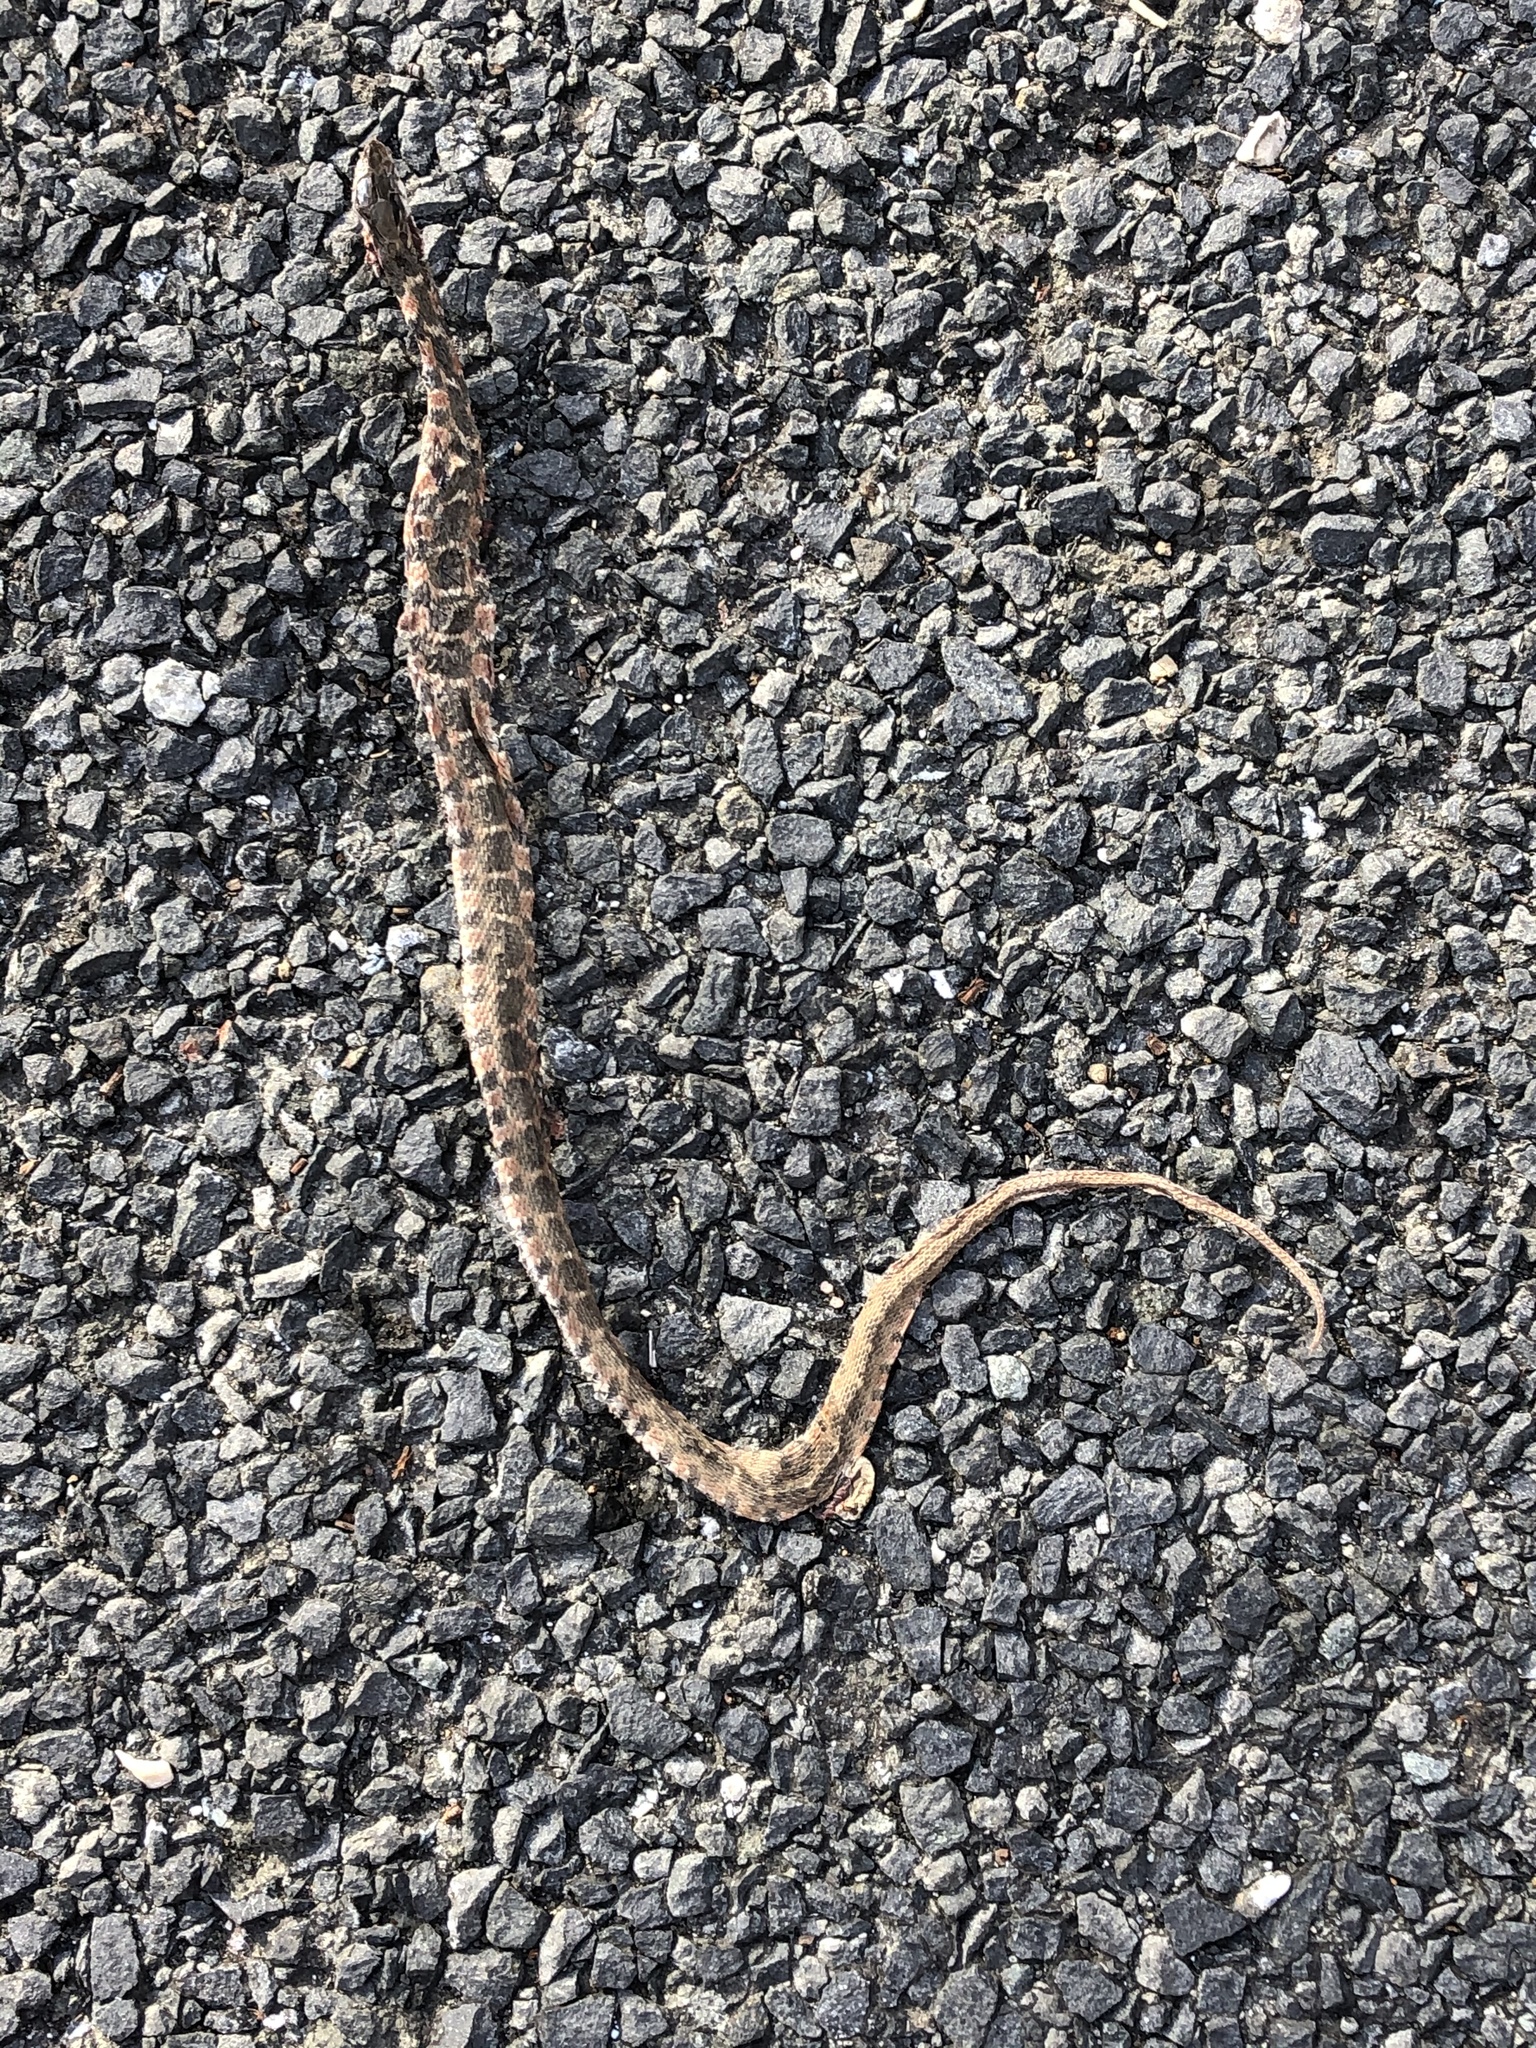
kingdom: Animalia
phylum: Chordata
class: Squamata
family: Colubridae
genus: Nerodia
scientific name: Nerodia erythrogaster
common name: Plainbelly water snake
